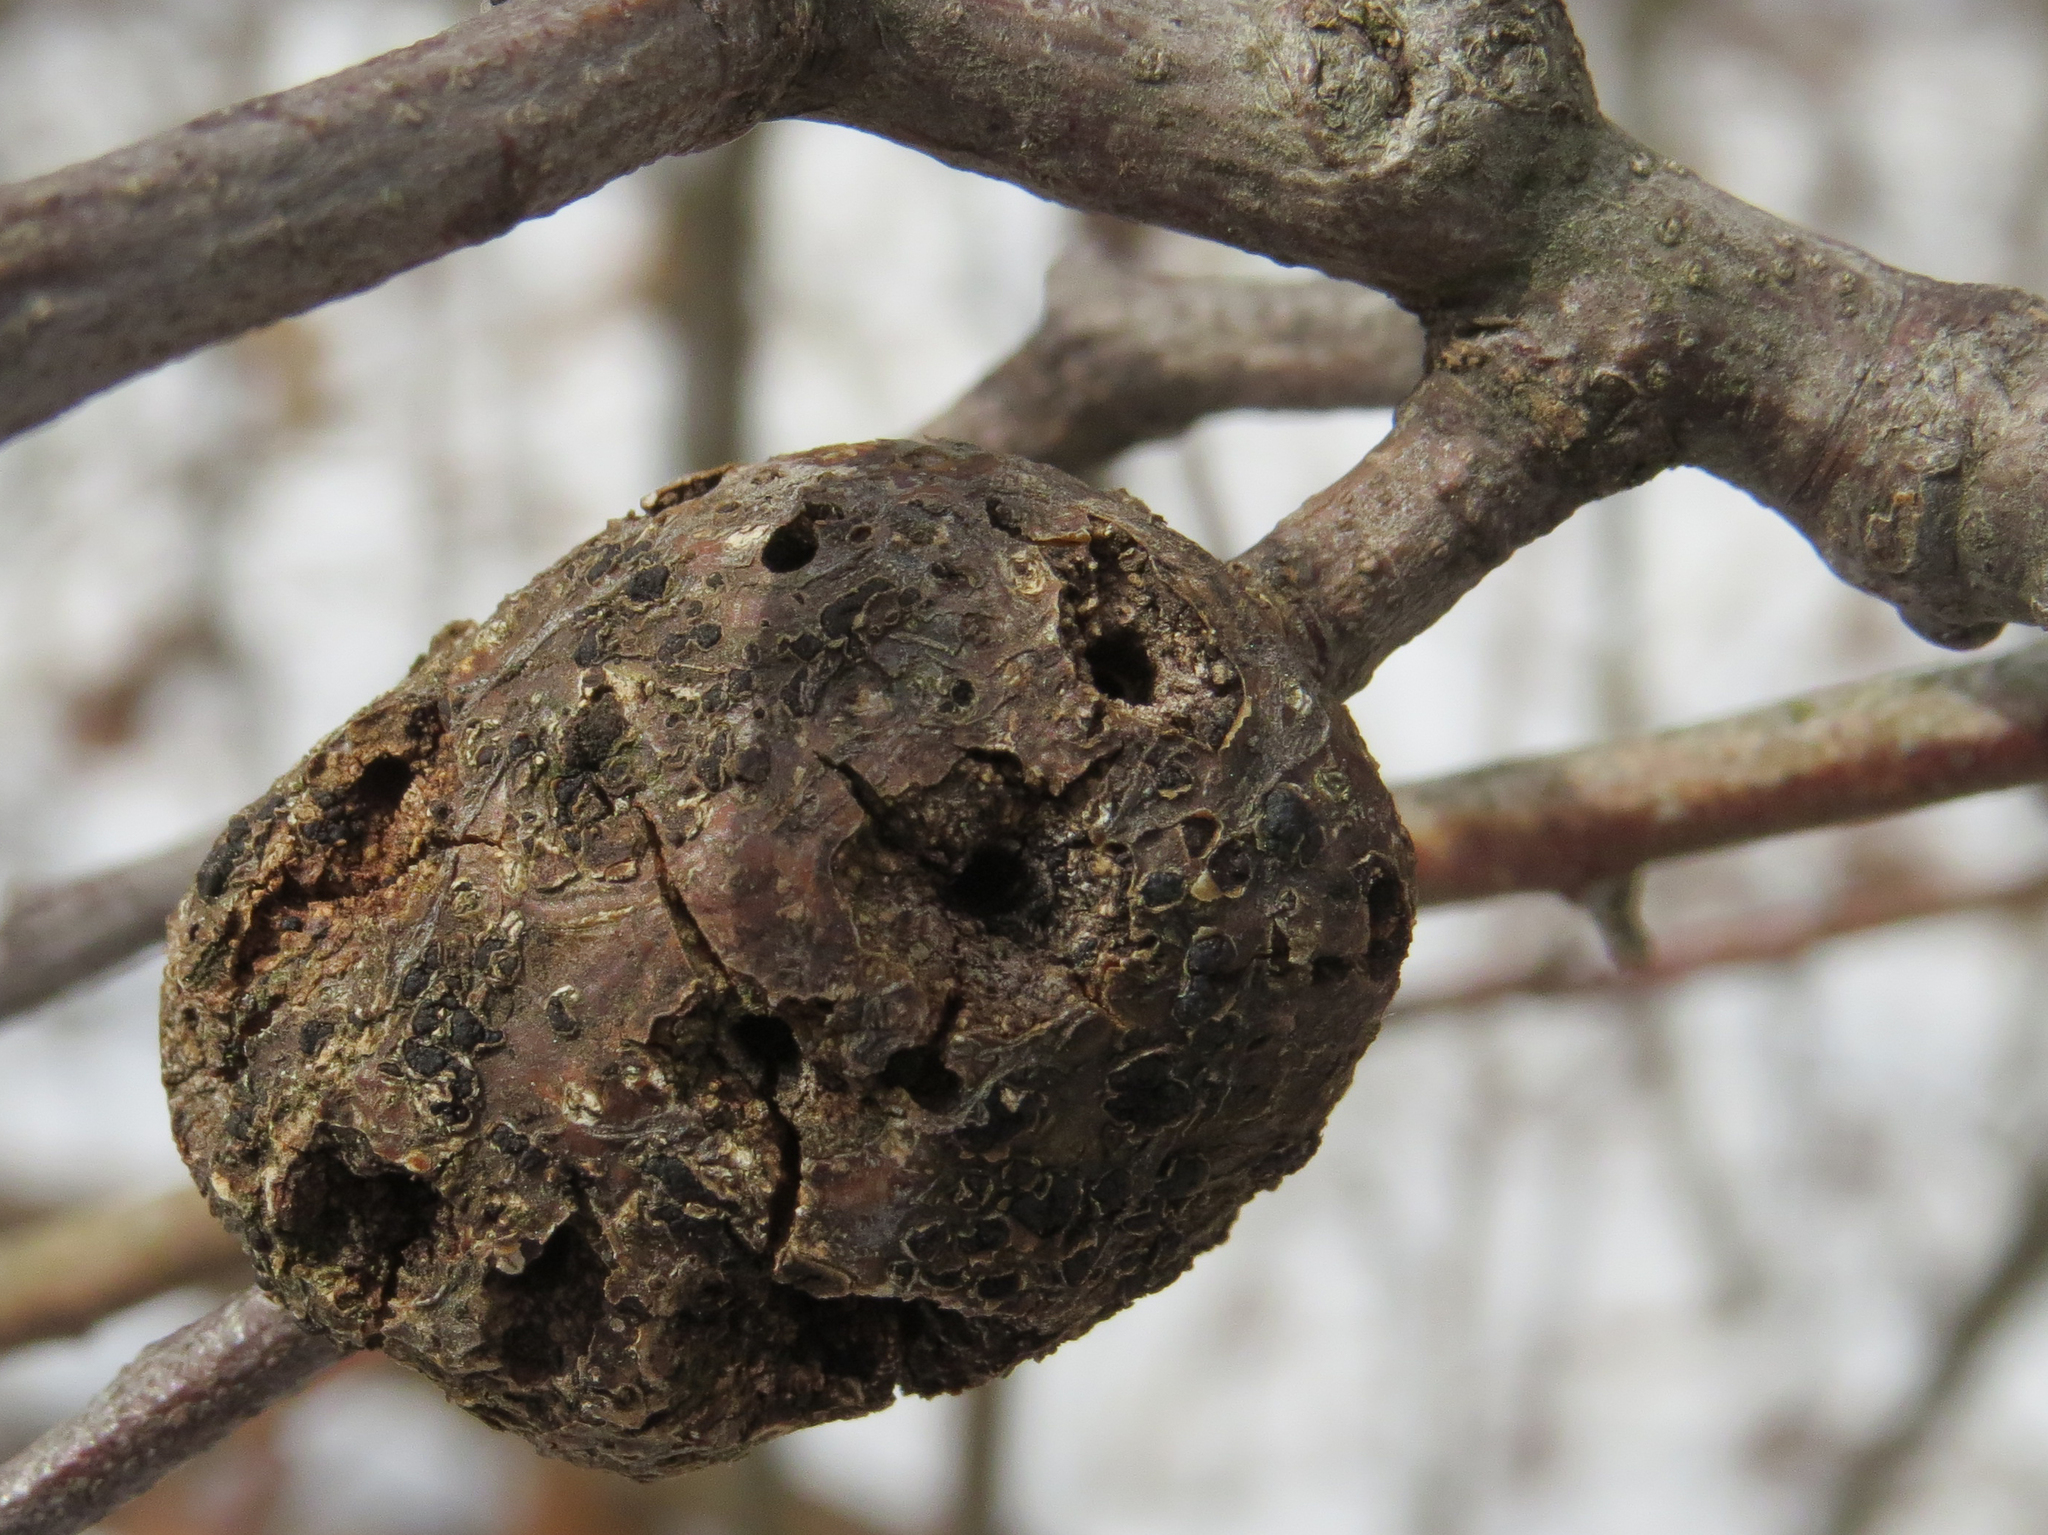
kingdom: Animalia
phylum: Arthropoda
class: Insecta
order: Hymenoptera
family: Cynipidae
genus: Callirhytis
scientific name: Callirhytis
